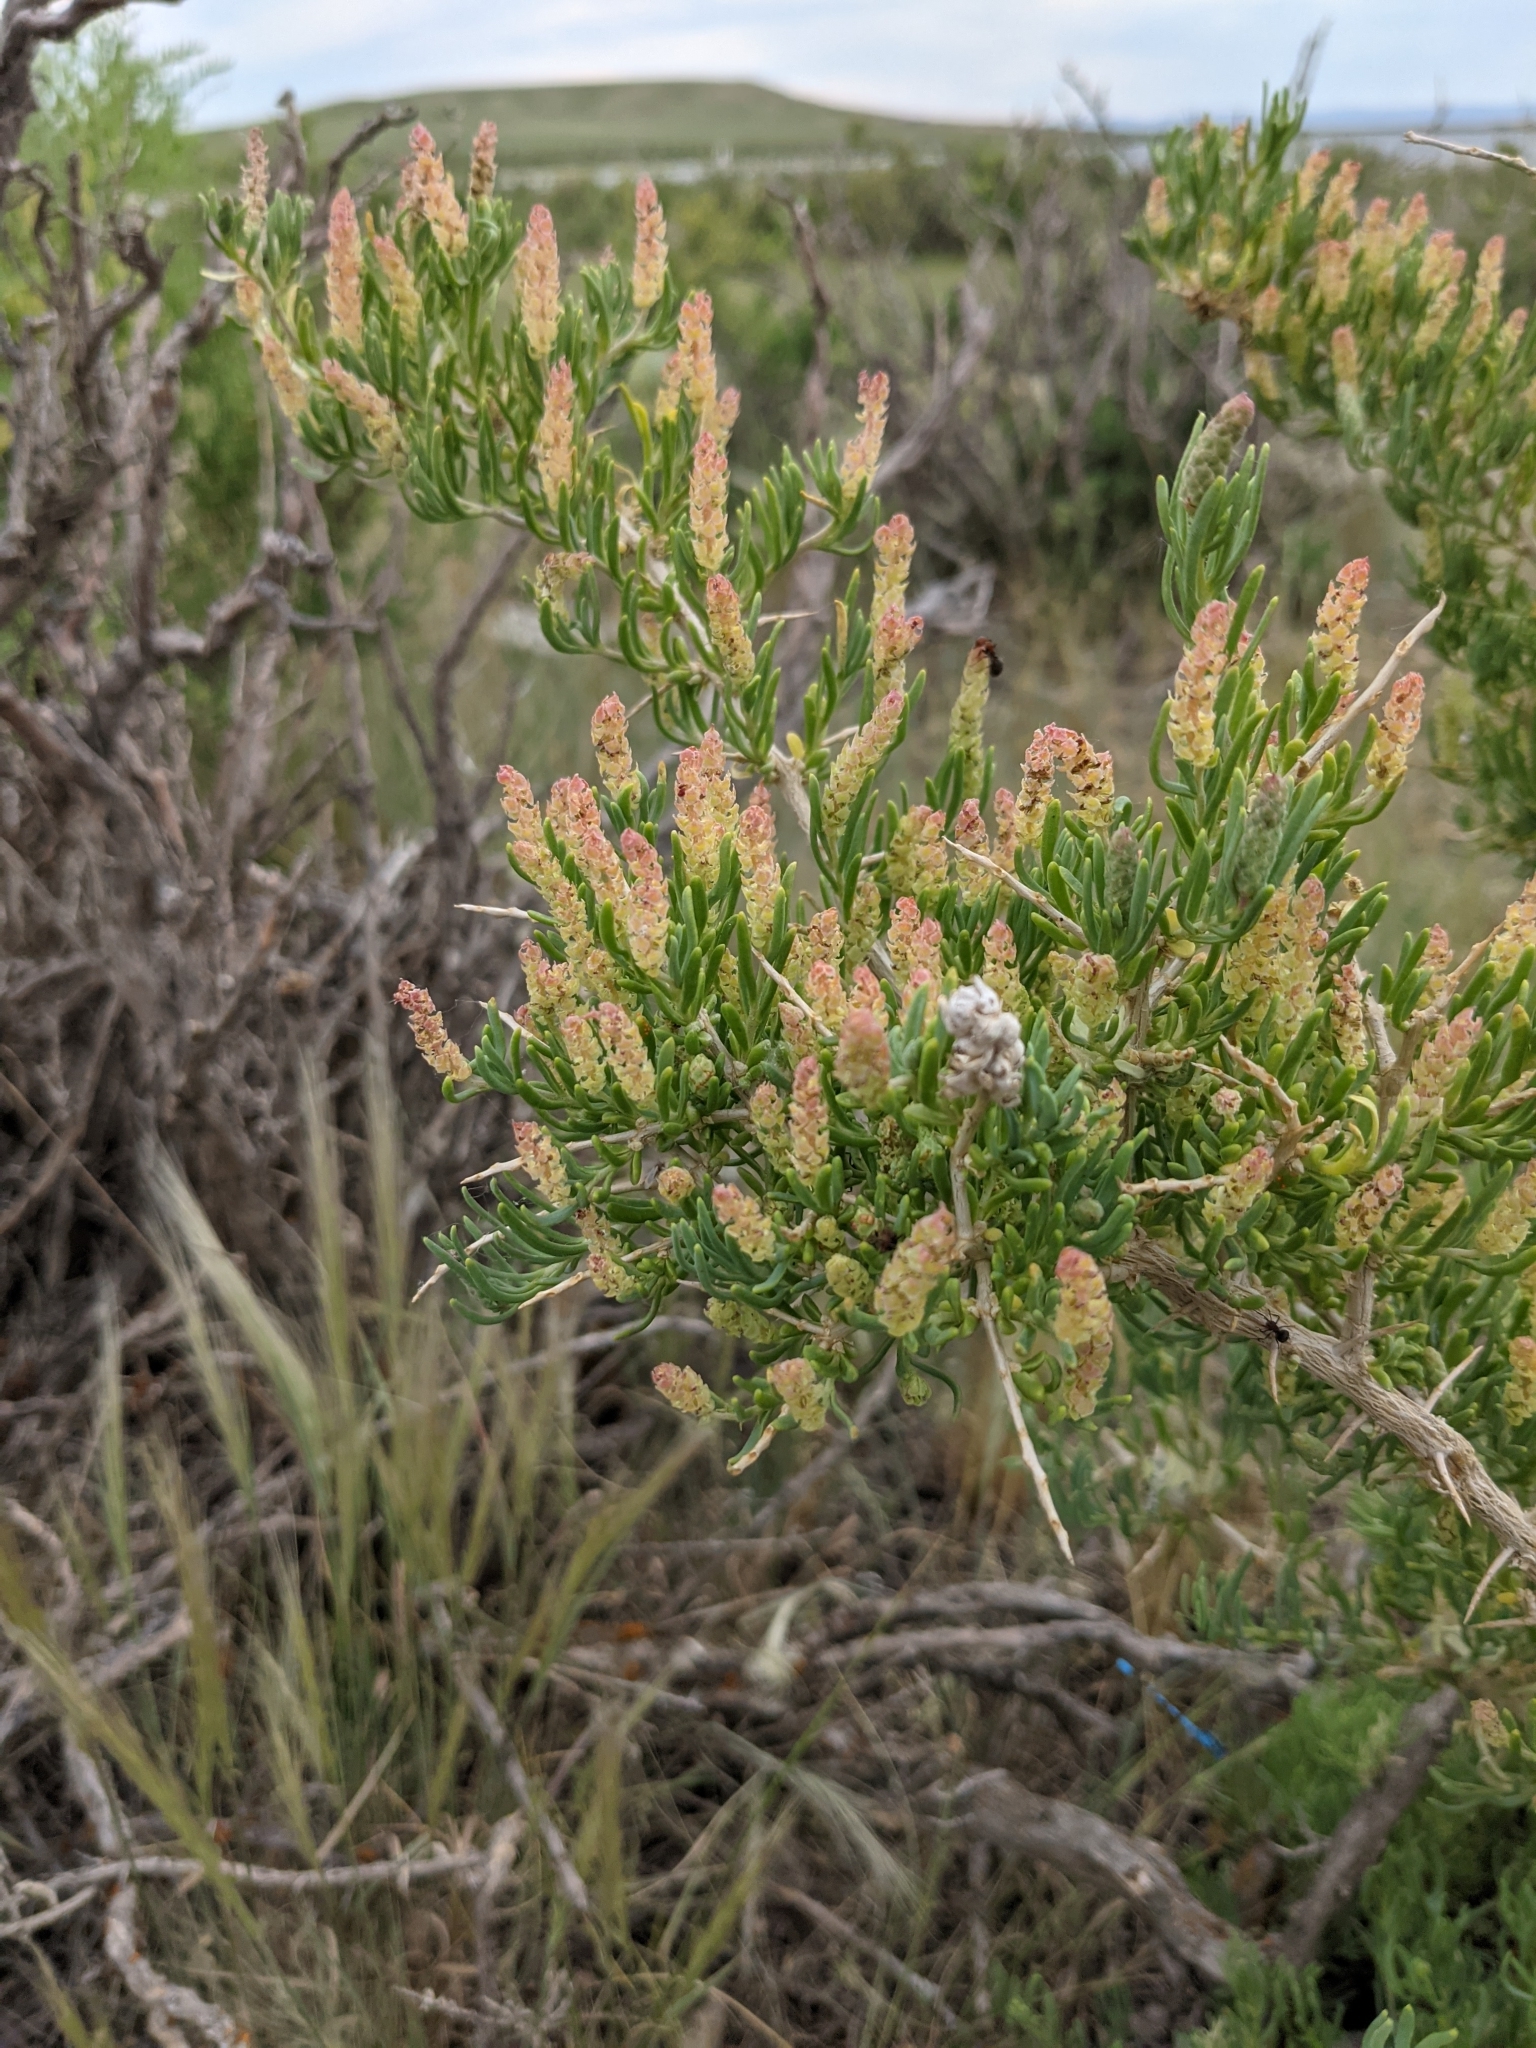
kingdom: Plantae
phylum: Tracheophyta
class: Magnoliopsida
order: Caryophyllales
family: Sarcobataceae
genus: Sarcobatus
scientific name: Sarcobatus vermiculatus
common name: Greasewood
